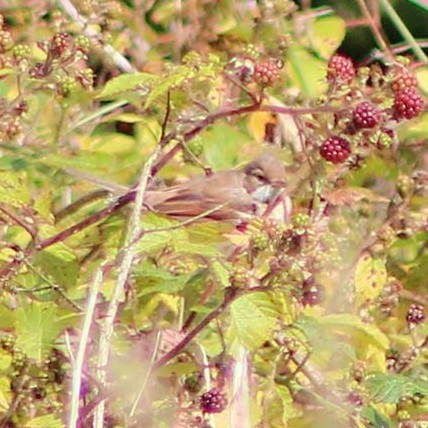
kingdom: Animalia
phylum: Chordata
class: Aves
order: Passeriformes
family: Sylviidae
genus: Sylvia
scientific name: Sylvia communis
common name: Common whitethroat
